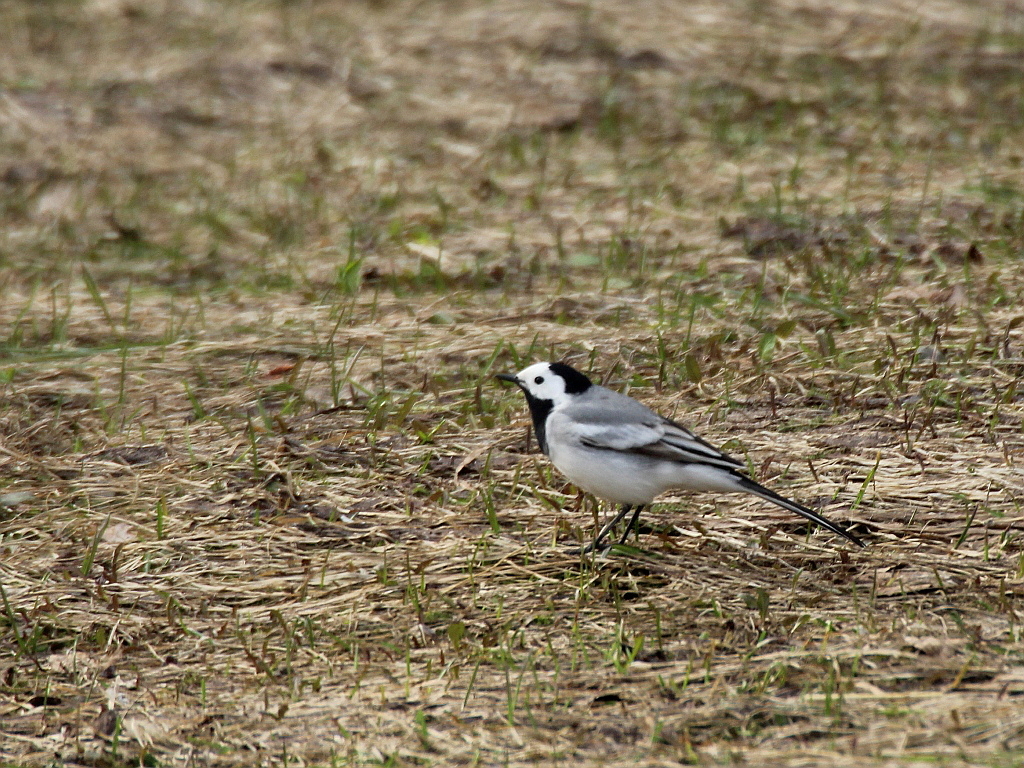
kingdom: Animalia
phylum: Chordata
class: Aves
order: Passeriformes
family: Motacillidae
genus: Motacilla
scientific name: Motacilla alba
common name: White wagtail
